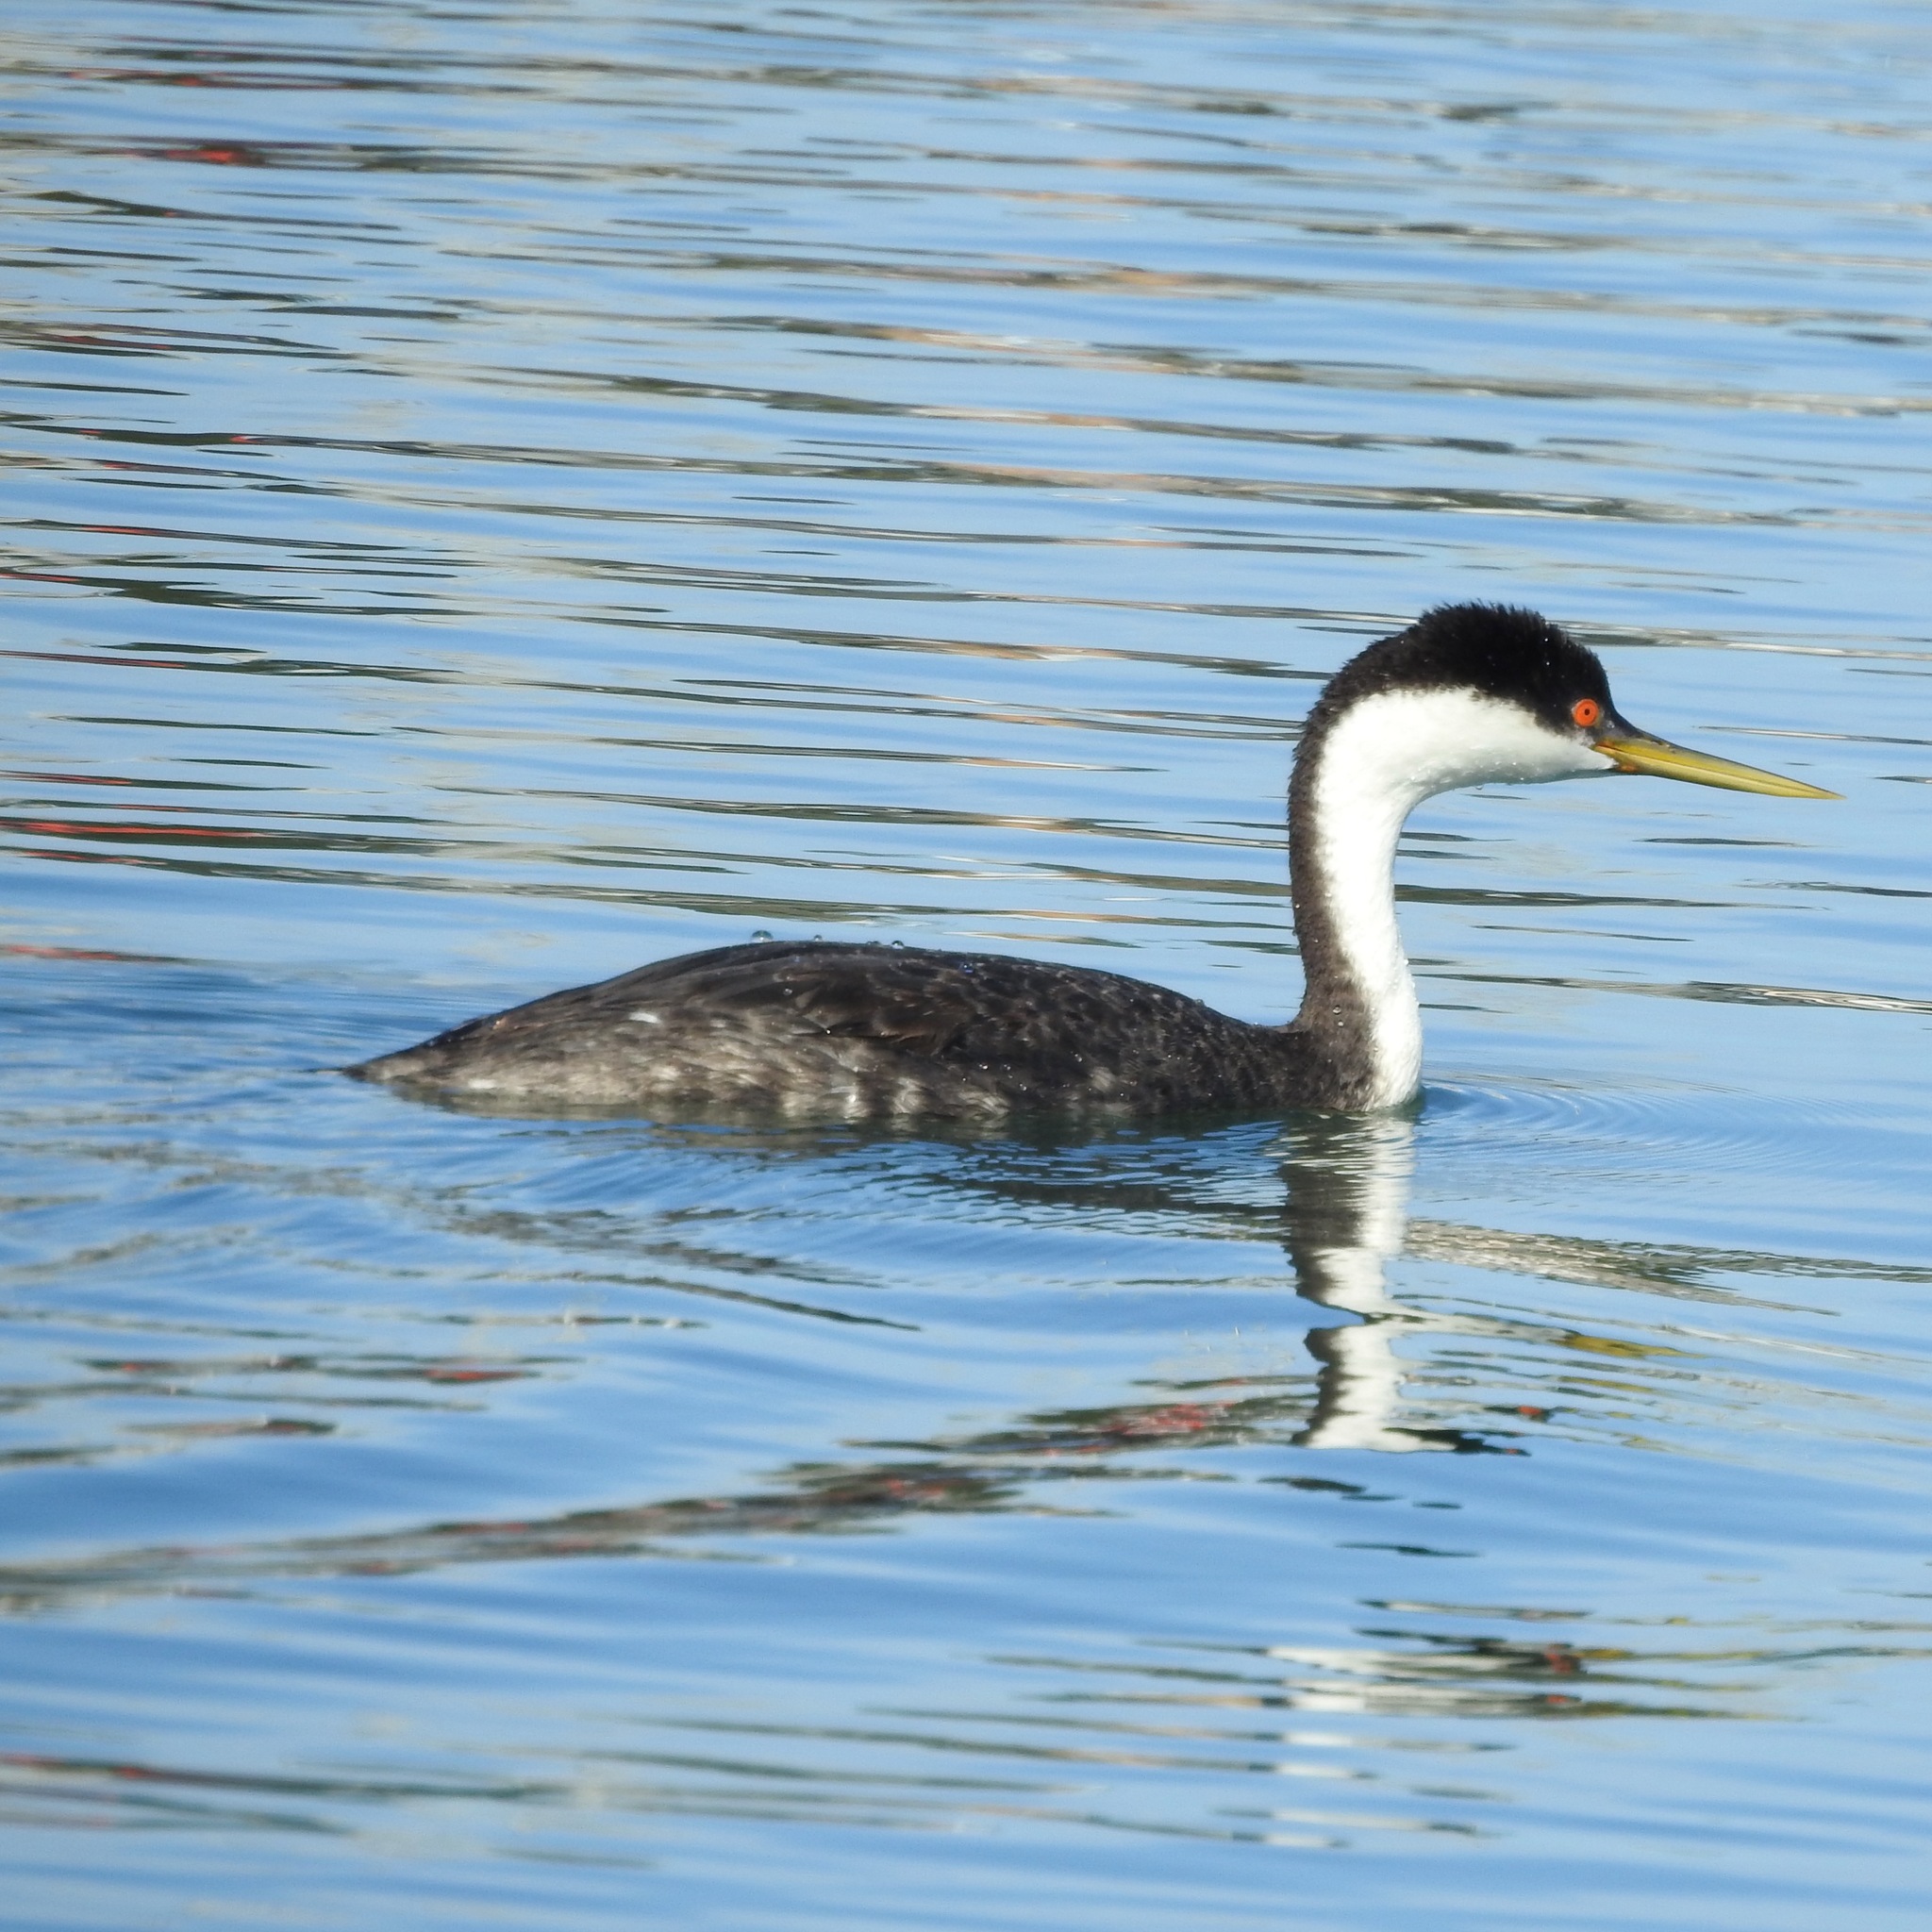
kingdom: Animalia
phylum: Chordata
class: Aves
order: Podicipediformes
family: Podicipedidae
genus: Aechmophorus
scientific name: Aechmophorus occidentalis
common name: Western grebe
